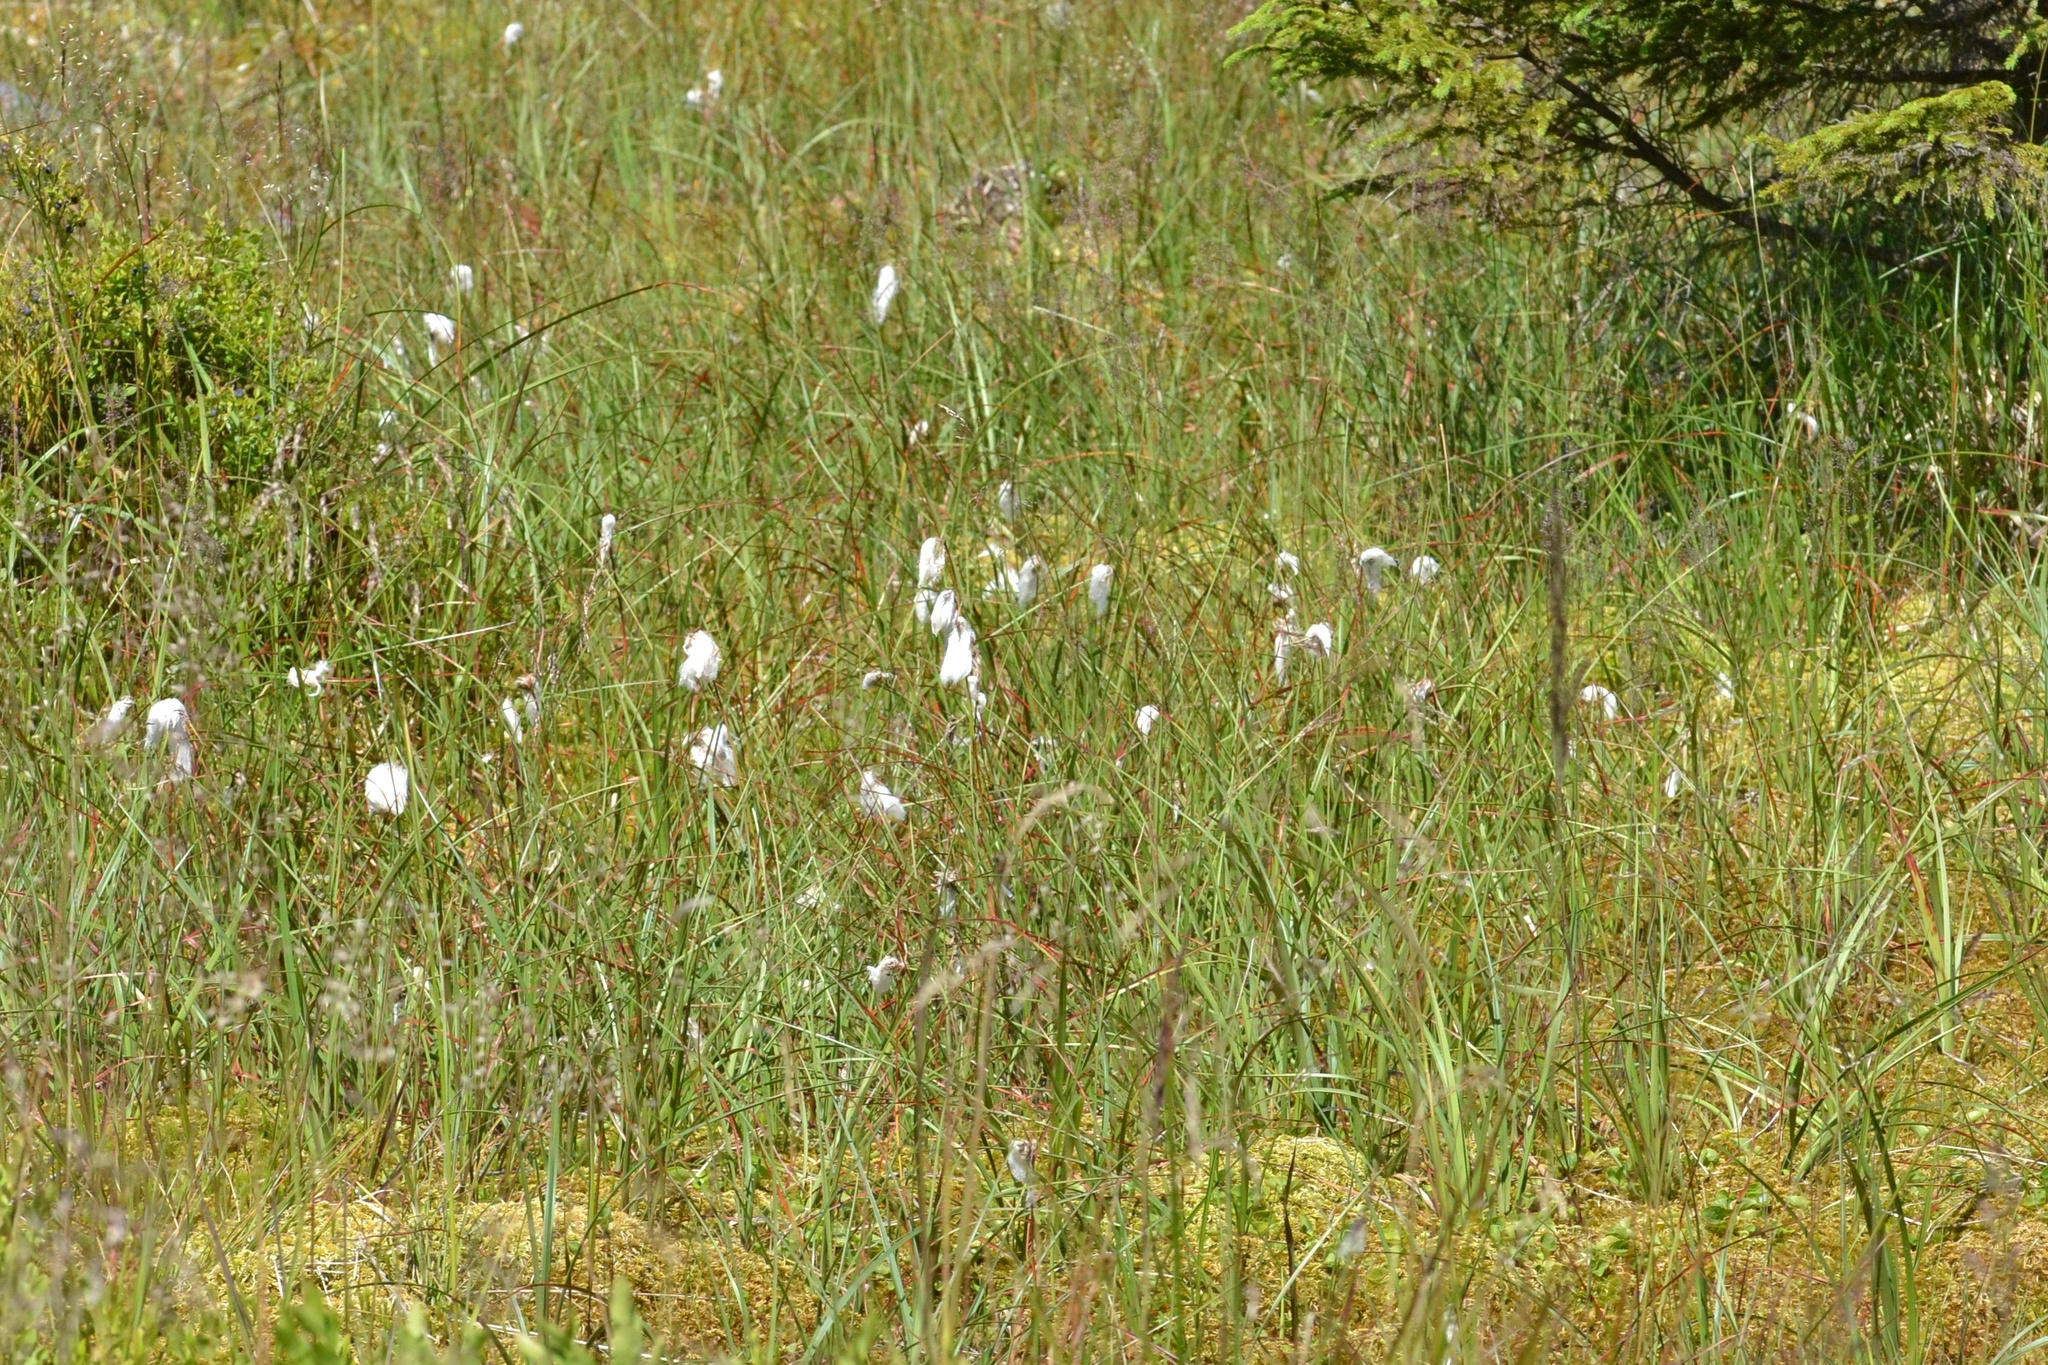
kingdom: Plantae
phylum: Tracheophyta
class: Liliopsida
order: Poales
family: Cyperaceae
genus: Eriophorum
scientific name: Eriophorum angustifolium
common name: Common cottongrass
